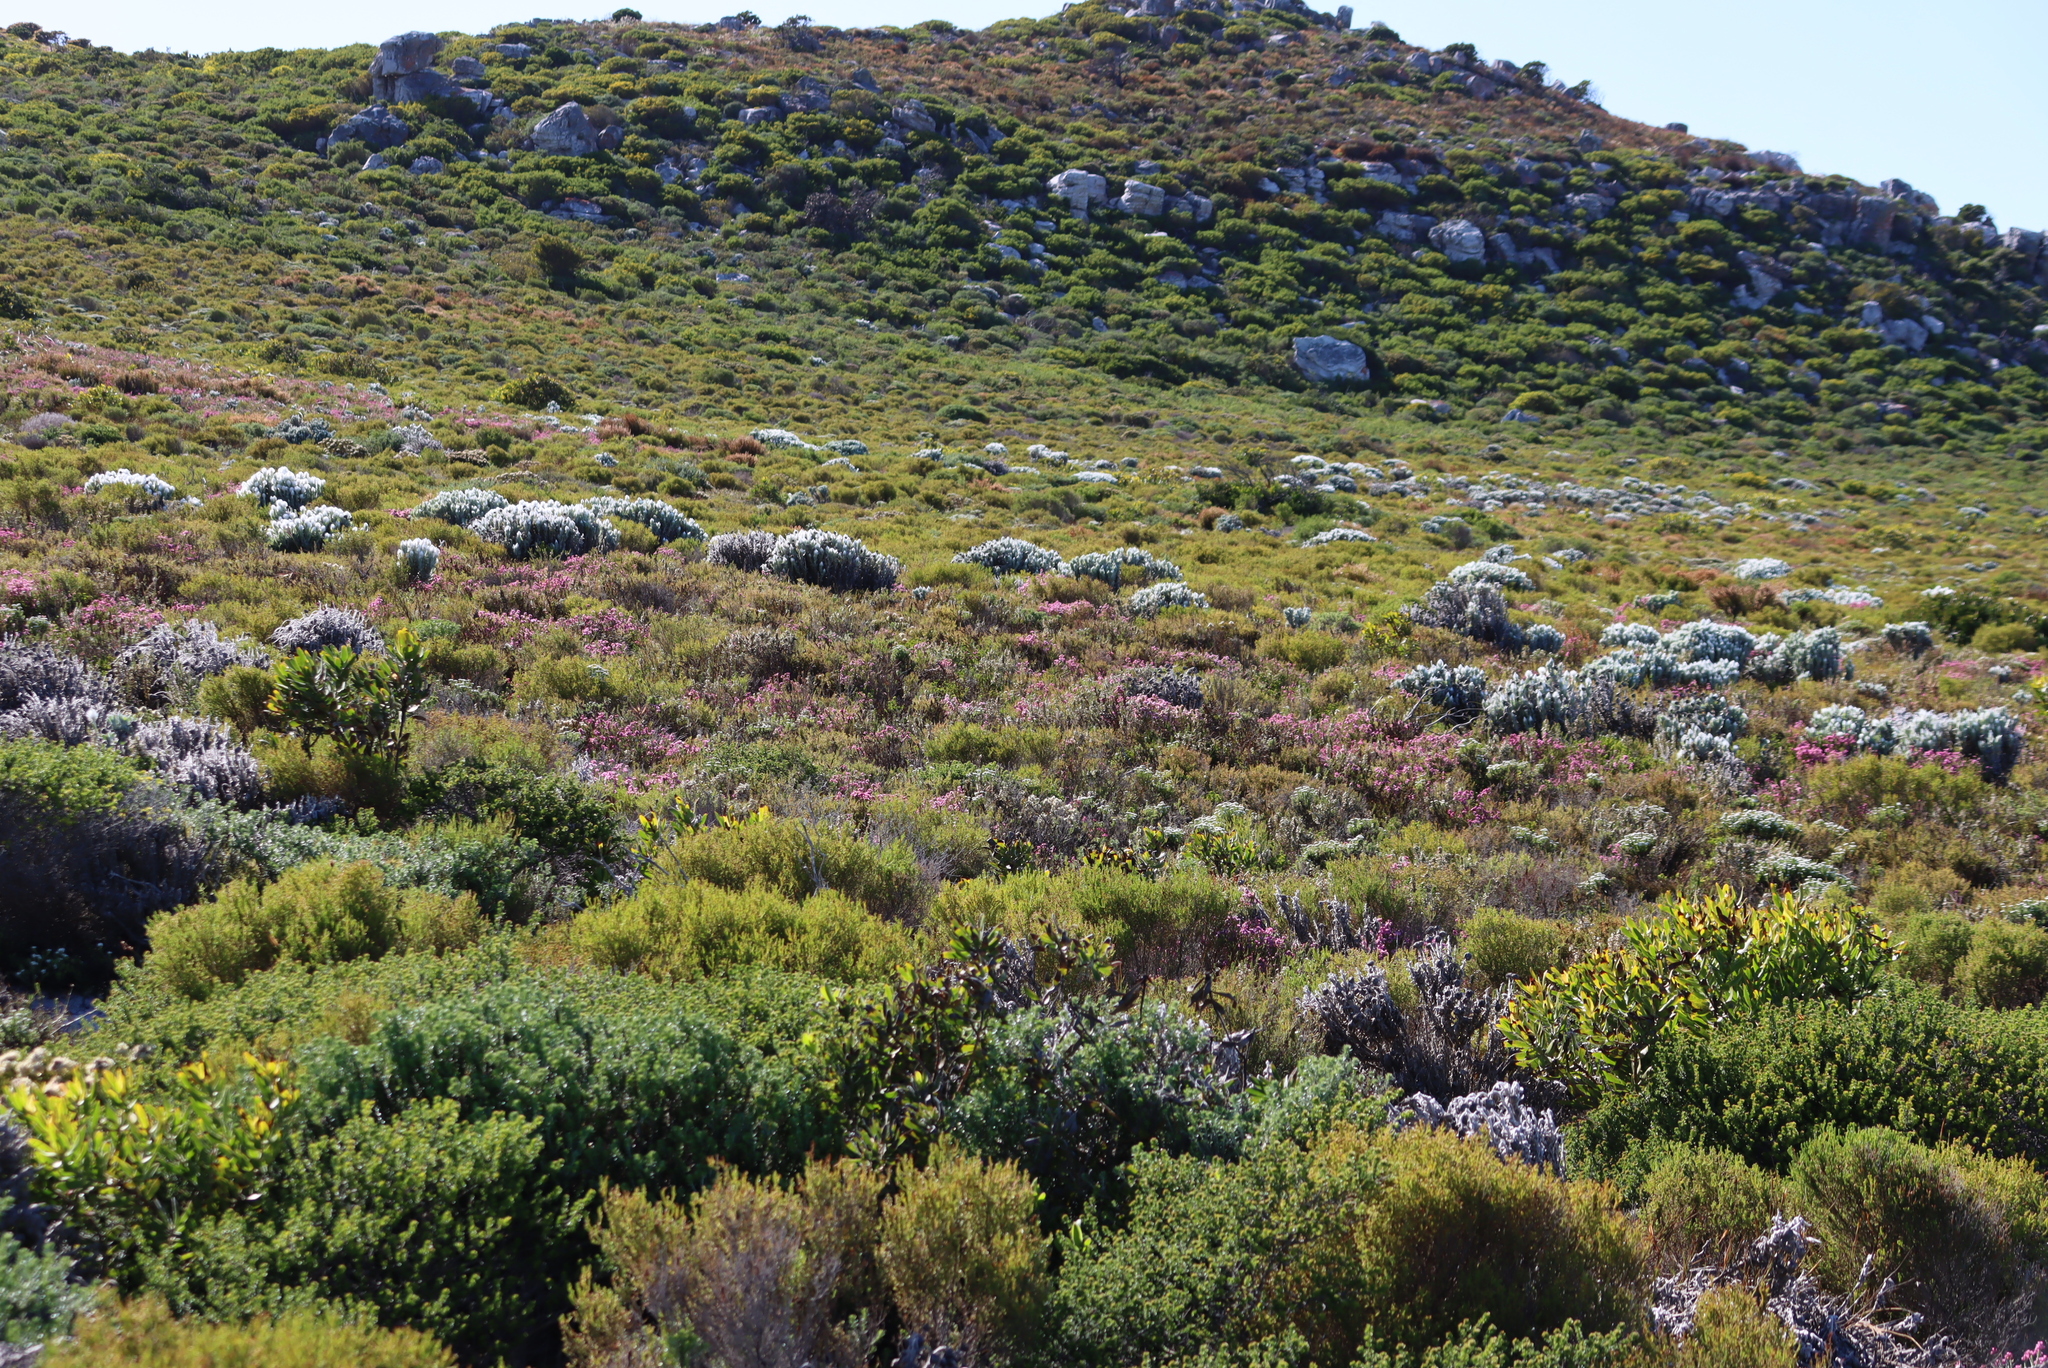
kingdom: Plantae
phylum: Tracheophyta
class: Magnoliopsida
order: Asterales
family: Asteraceae
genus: Syncarpha
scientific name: Syncarpha vestita
